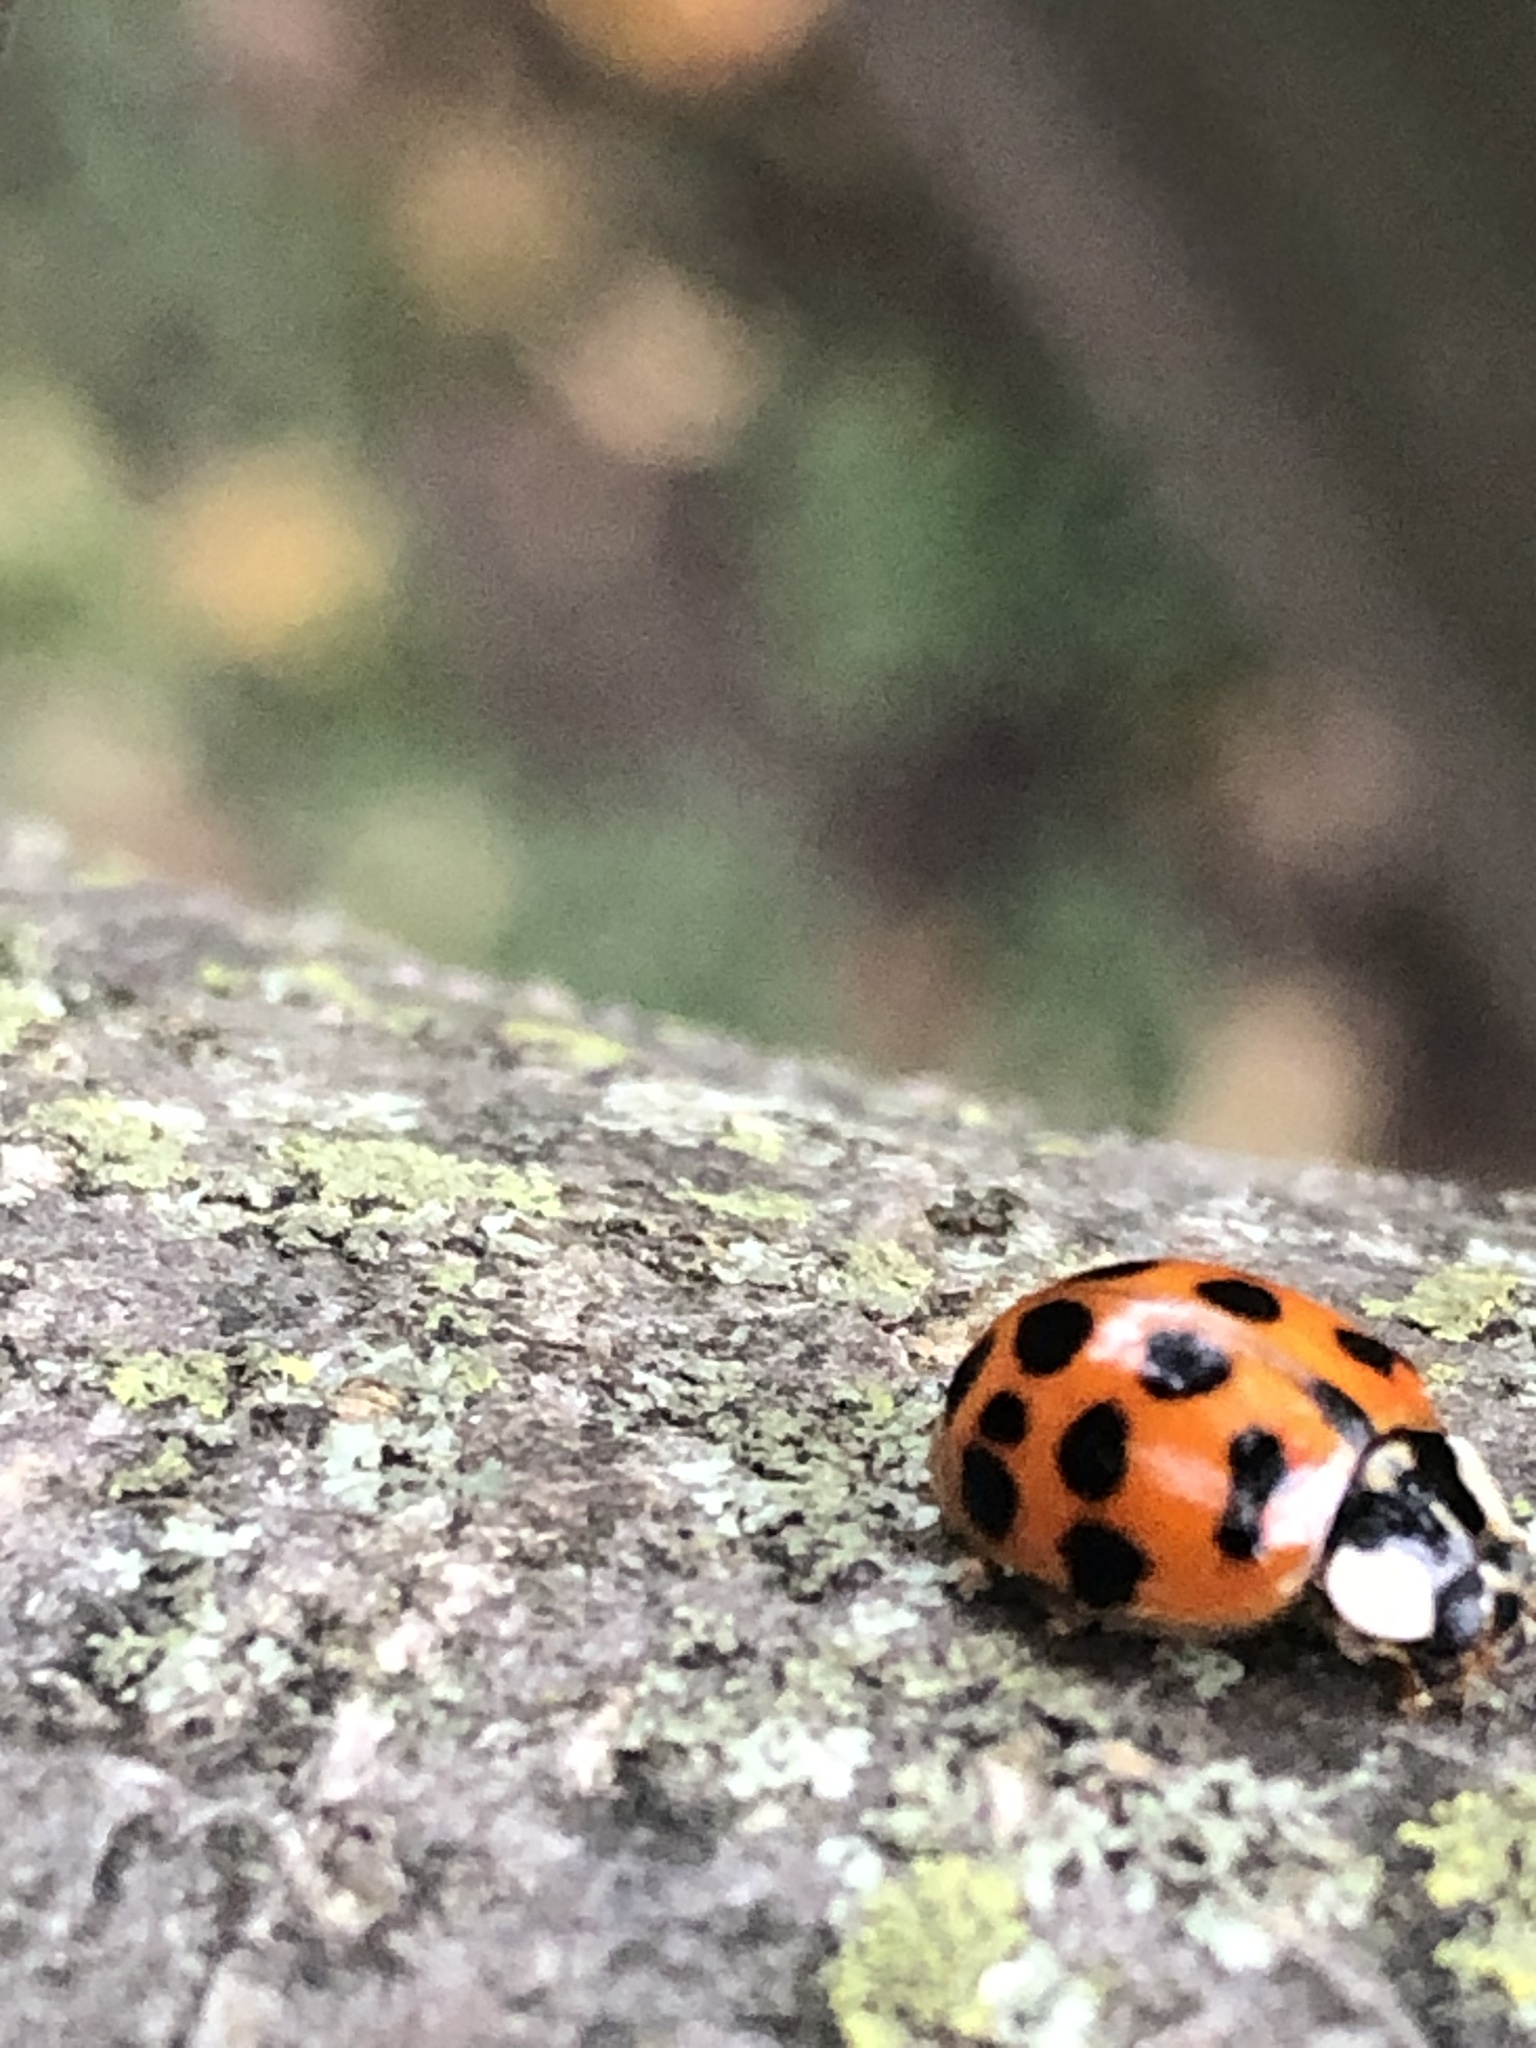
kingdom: Animalia
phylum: Arthropoda
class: Insecta
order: Coleoptera
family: Coccinellidae
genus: Harmonia
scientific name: Harmonia axyridis
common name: Harlequin ladybird
